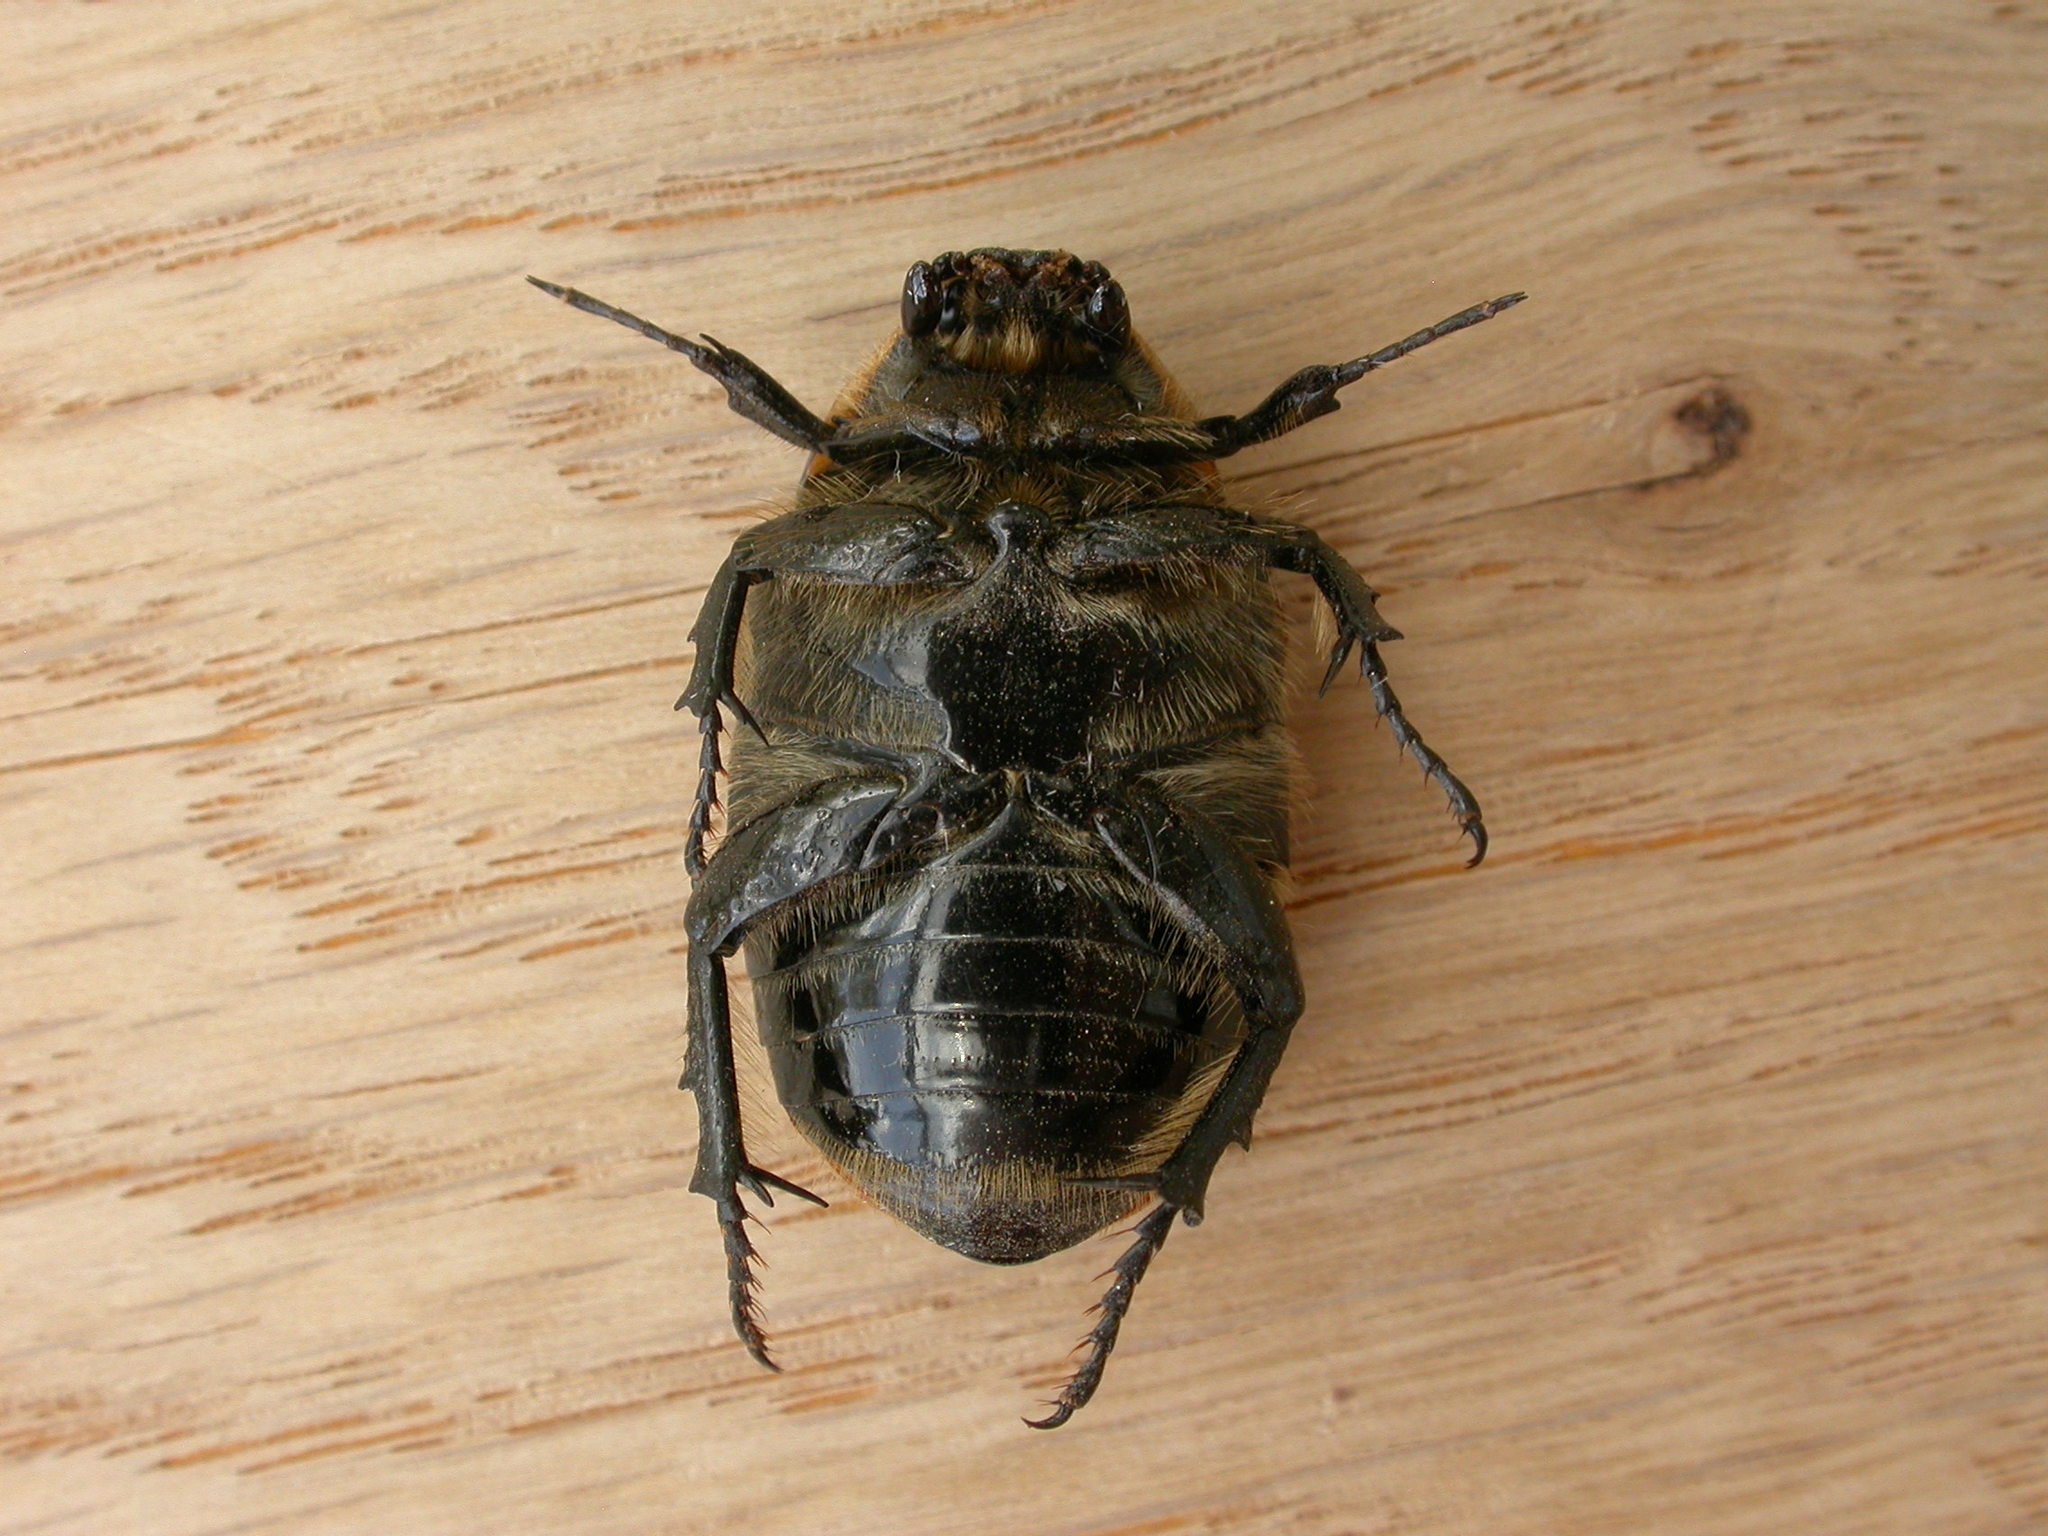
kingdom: Animalia
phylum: Arthropoda
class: Insecta
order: Coleoptera
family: Scarabaeidae
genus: Chondropyga
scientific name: Chondropyga dorsalis
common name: Cowboy beetle
